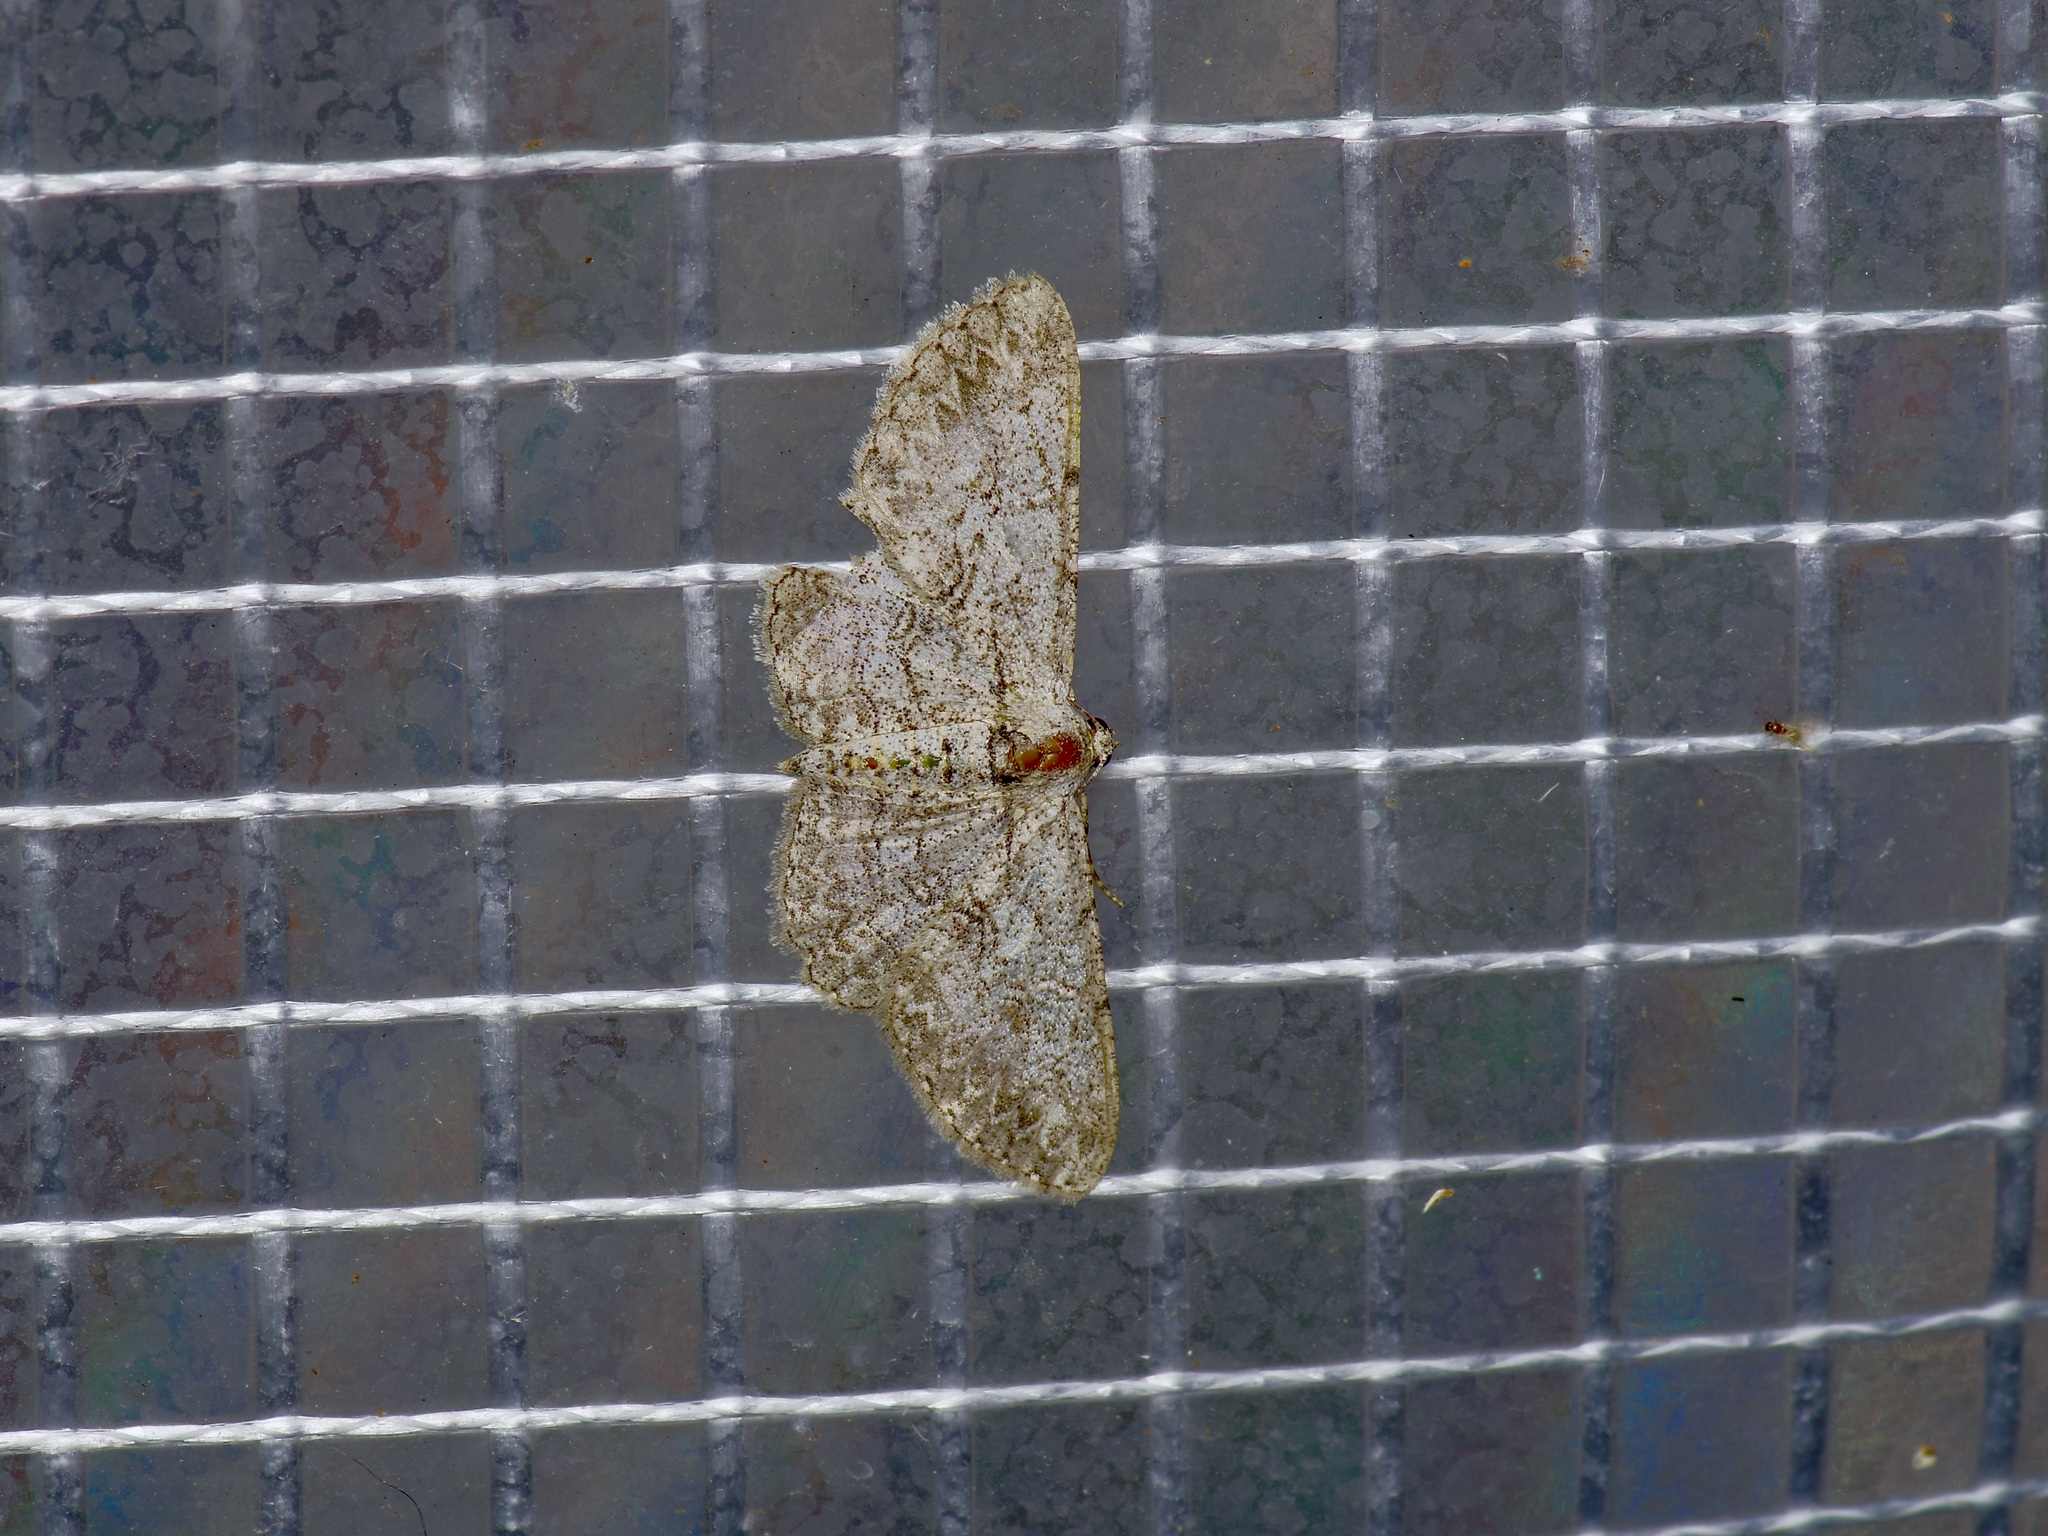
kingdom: Animalia
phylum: Arthropoda
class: Insecta
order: Lepidoptera
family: Geometridae
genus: Iridopsis
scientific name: Iridopsis defectaria
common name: Brown-shaded gray
